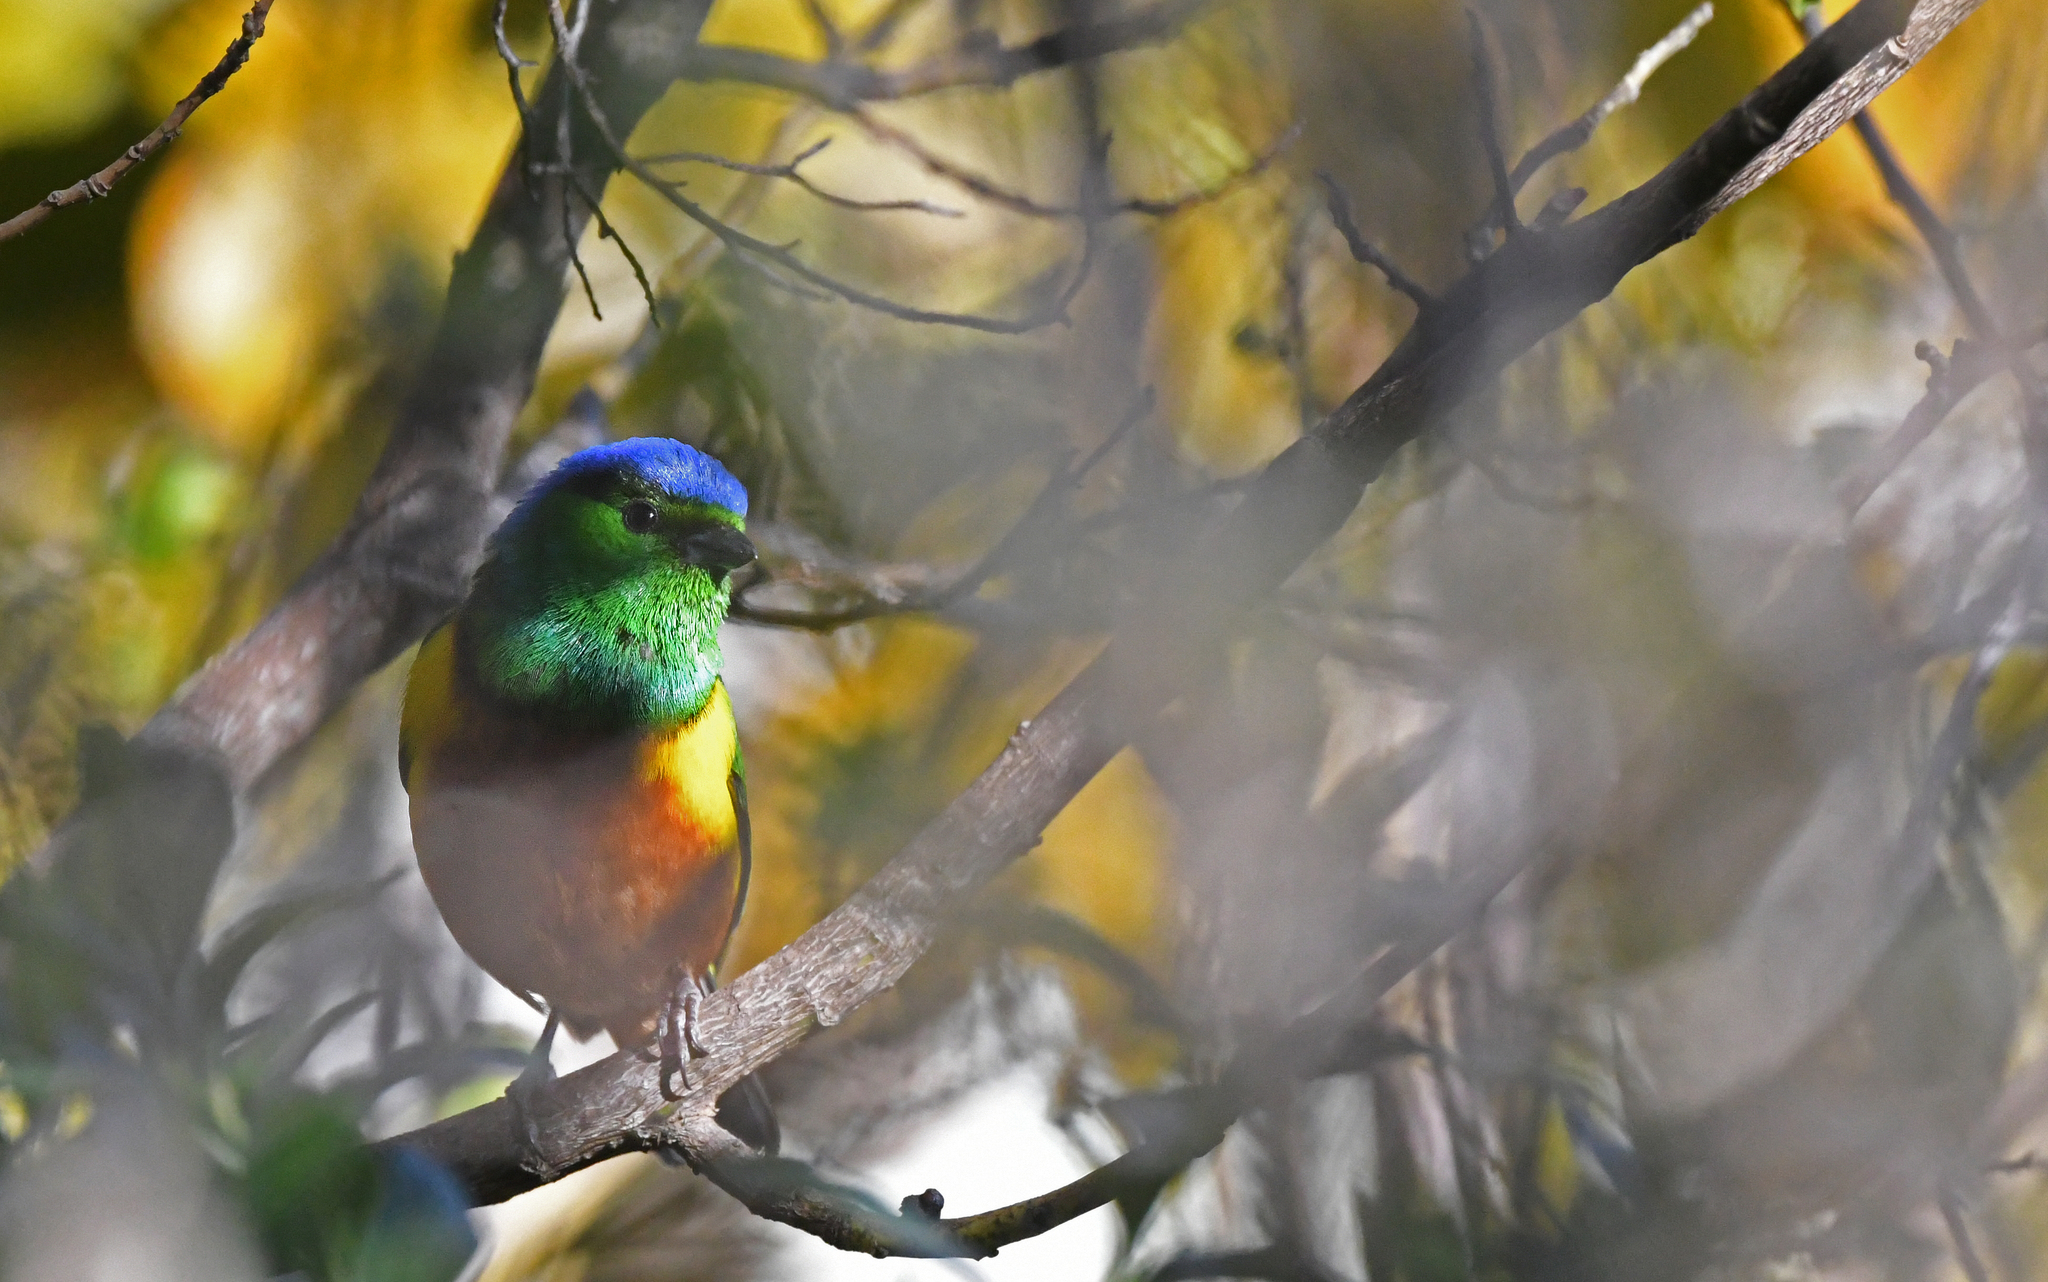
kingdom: Animalia
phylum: Chordata
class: Aves
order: Passeriformes
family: Fringillidae
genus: Chlorophonia
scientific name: Chlorophonia pyrrhophrys
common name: Chestnut-breasted chlorophonia
